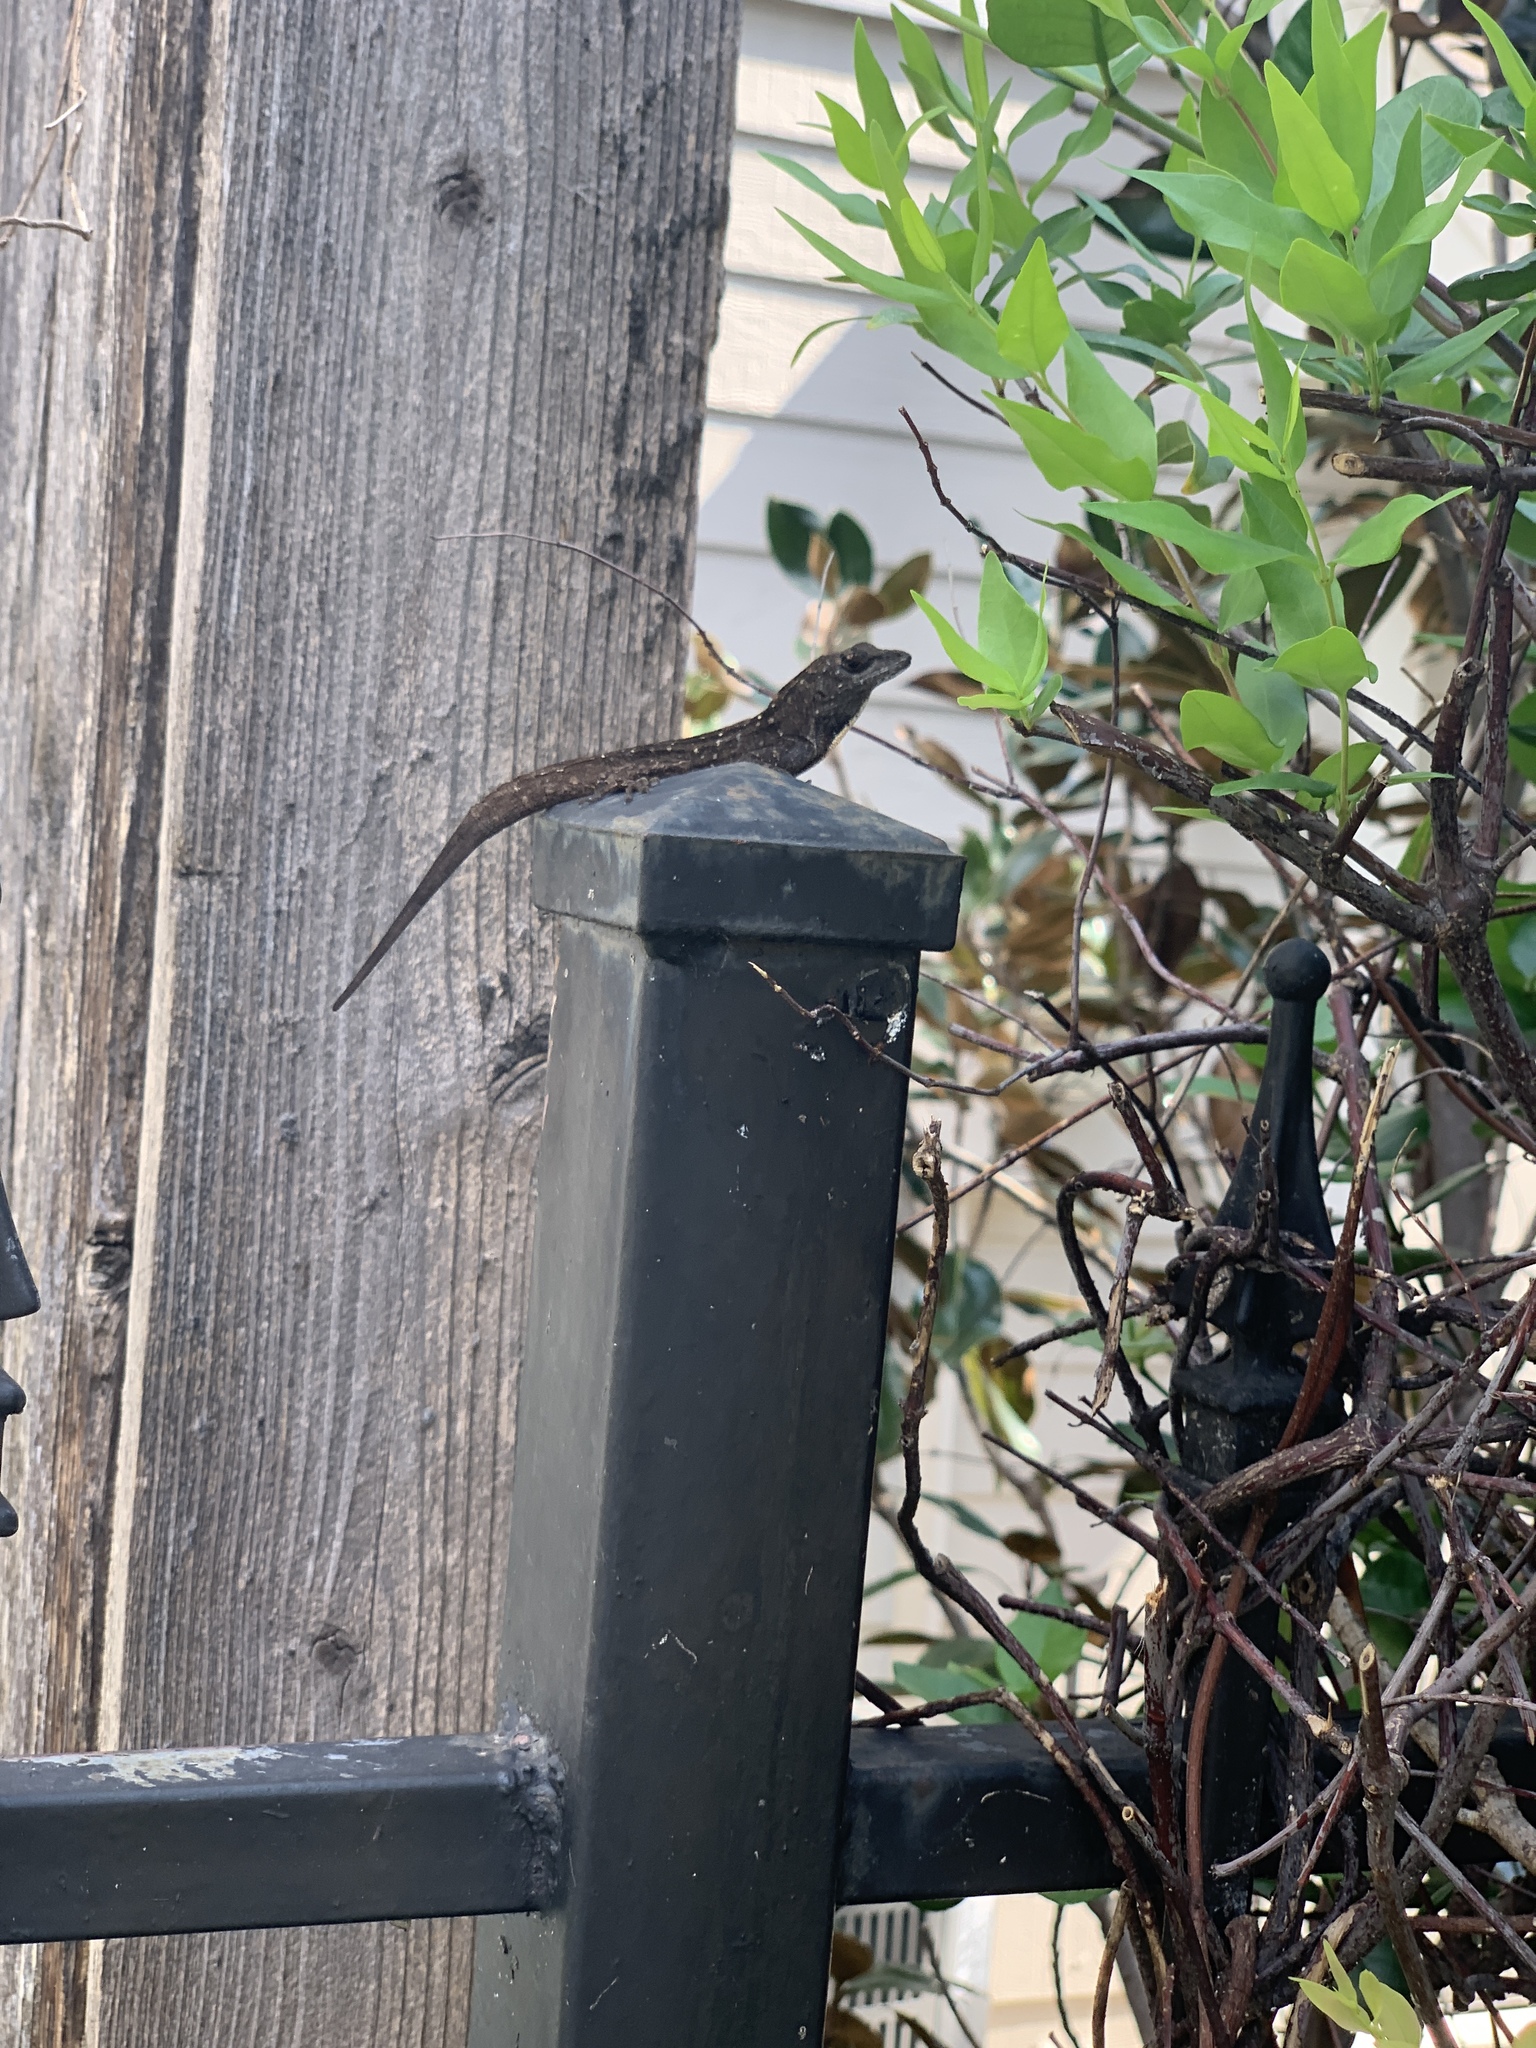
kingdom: Animalia
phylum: Chordata
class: Squamata
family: Dactyloidae
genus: Anolis
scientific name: Anolis sagrei
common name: Brown anole
